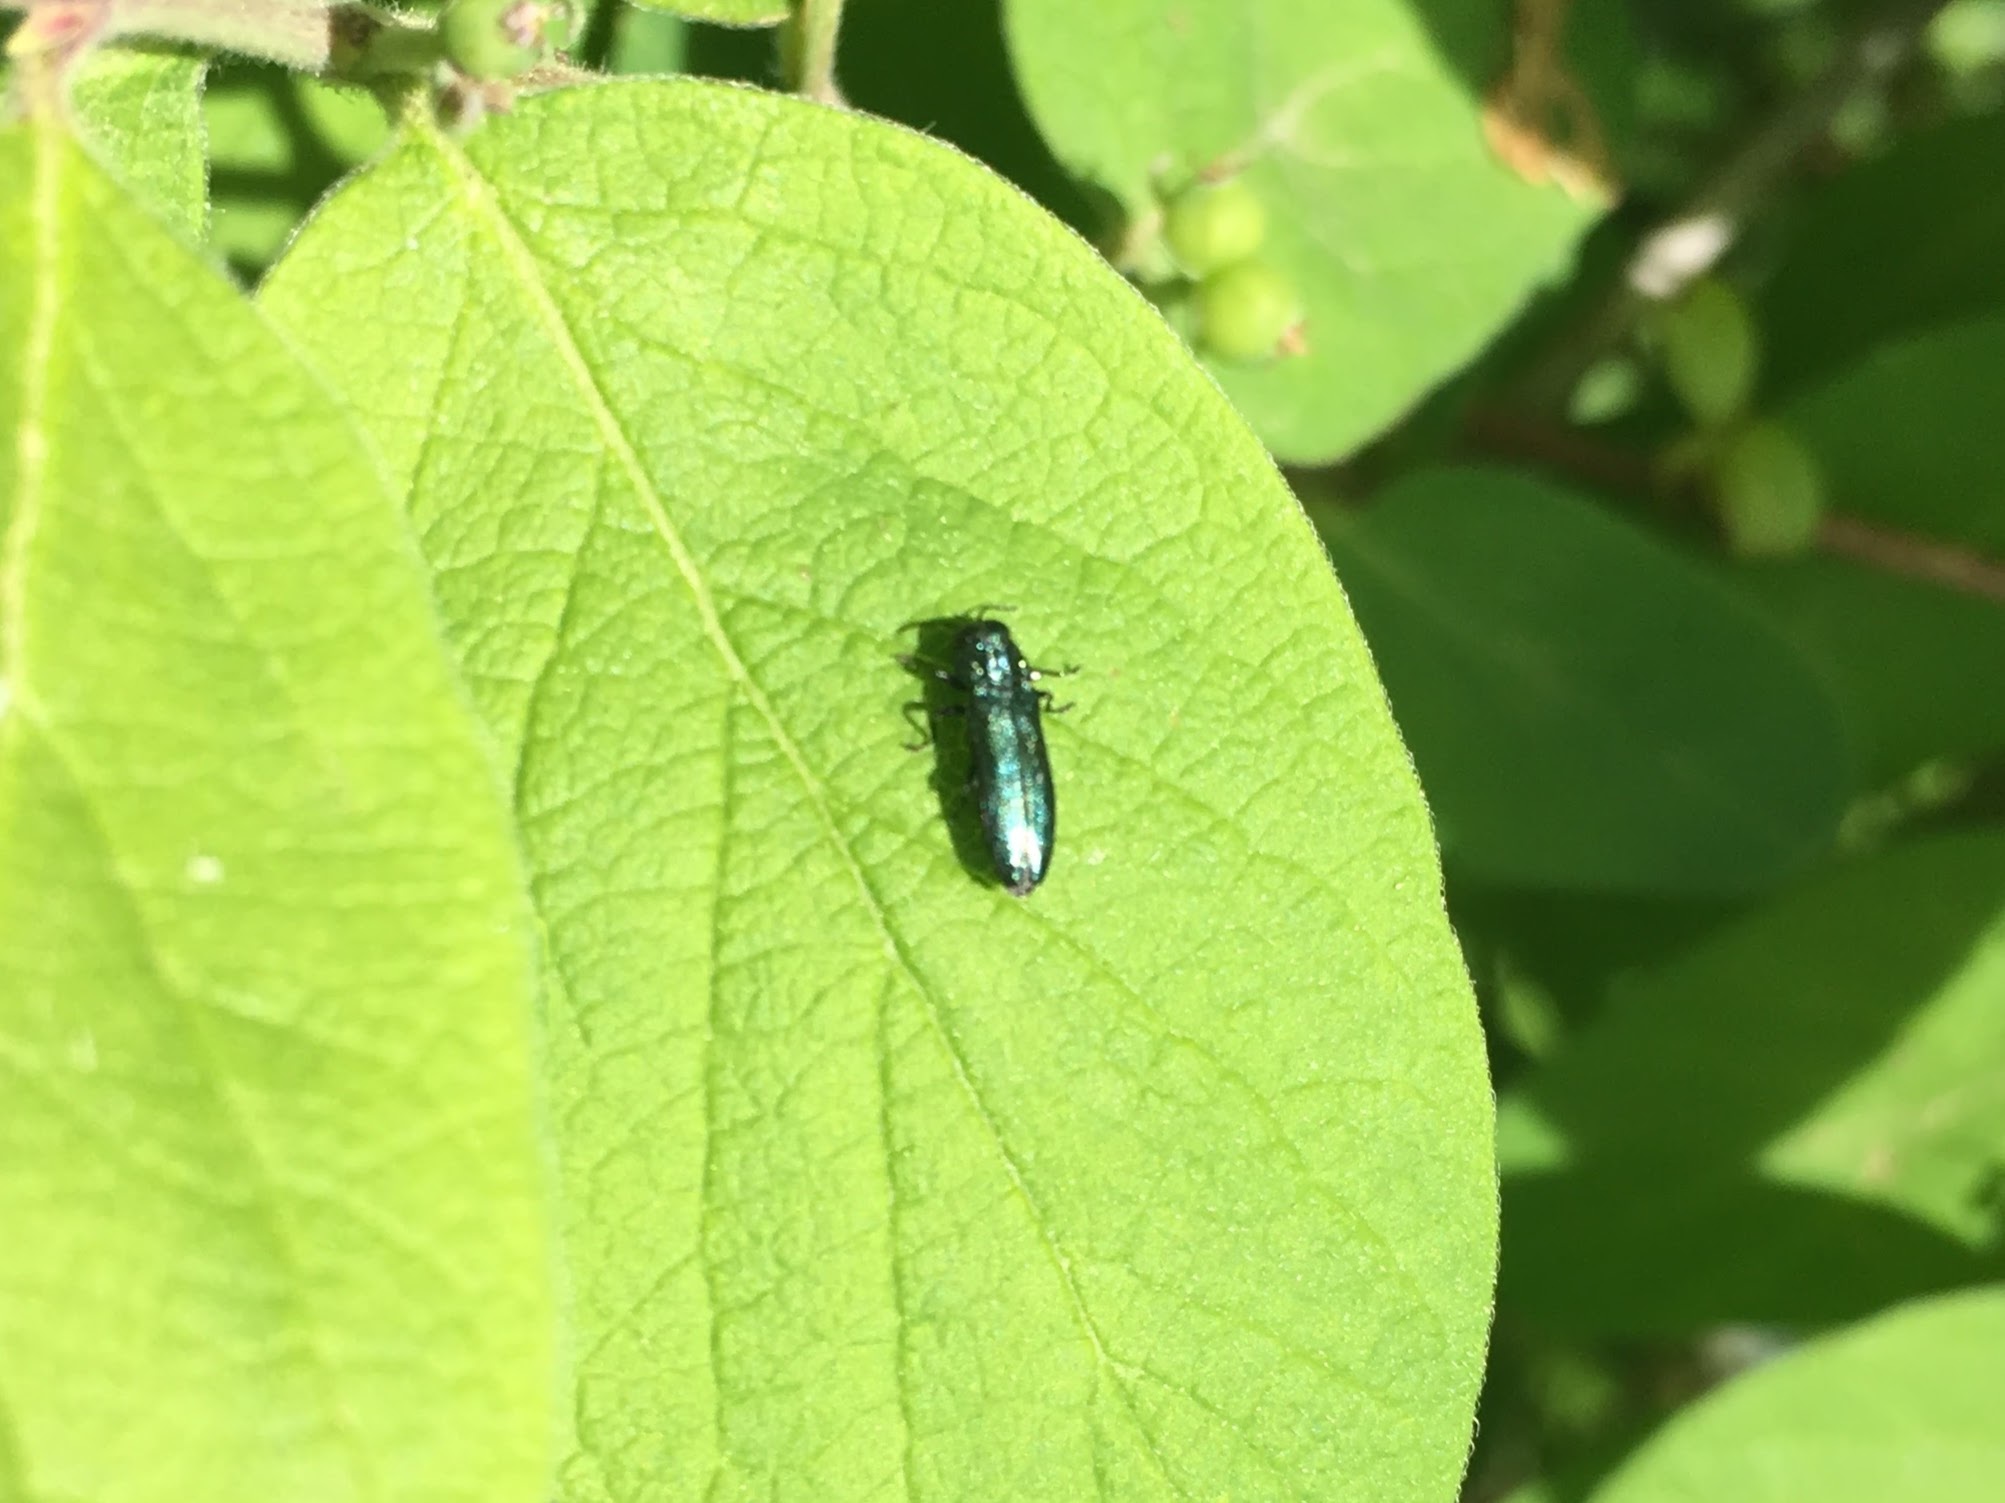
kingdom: Animalia
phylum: Arthropoda
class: Insecta
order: Coleoptera
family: Buprestidae
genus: Agrilus
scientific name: Agrilus cyanescens
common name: Bluish borer beetle
